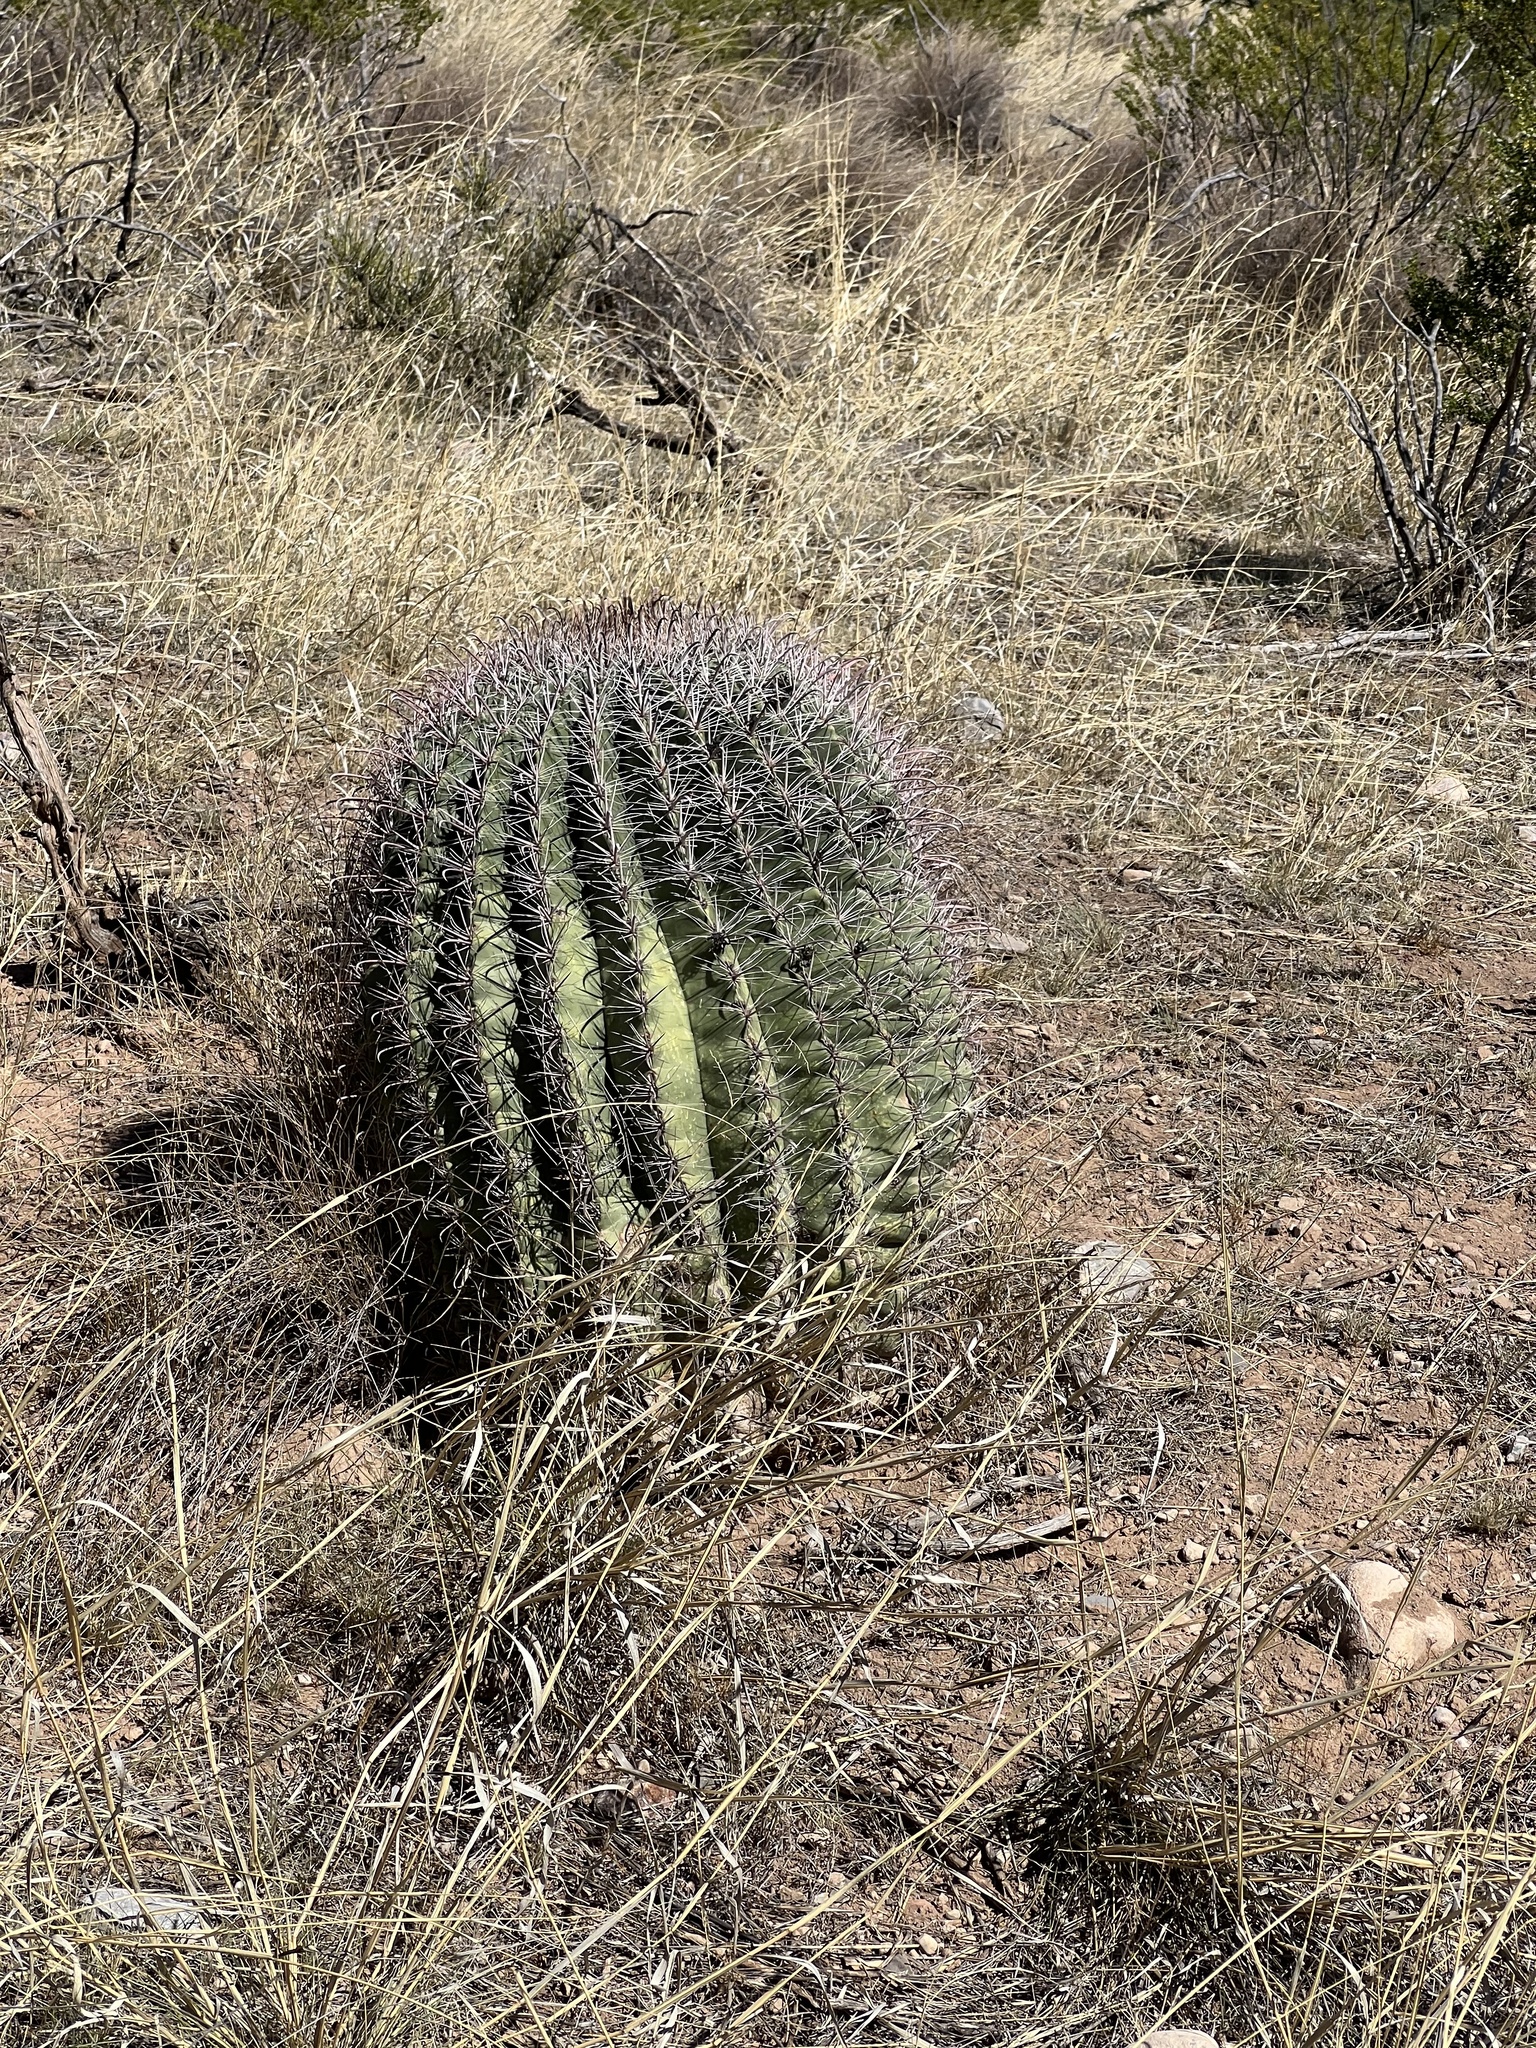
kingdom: Plantae
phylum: Tracheophyta
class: Magnoliopsida
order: Caryophyllales
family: Cactaceae
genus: Ferocactus
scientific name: Ferocactus wislizeni
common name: Candy barrel cactus
